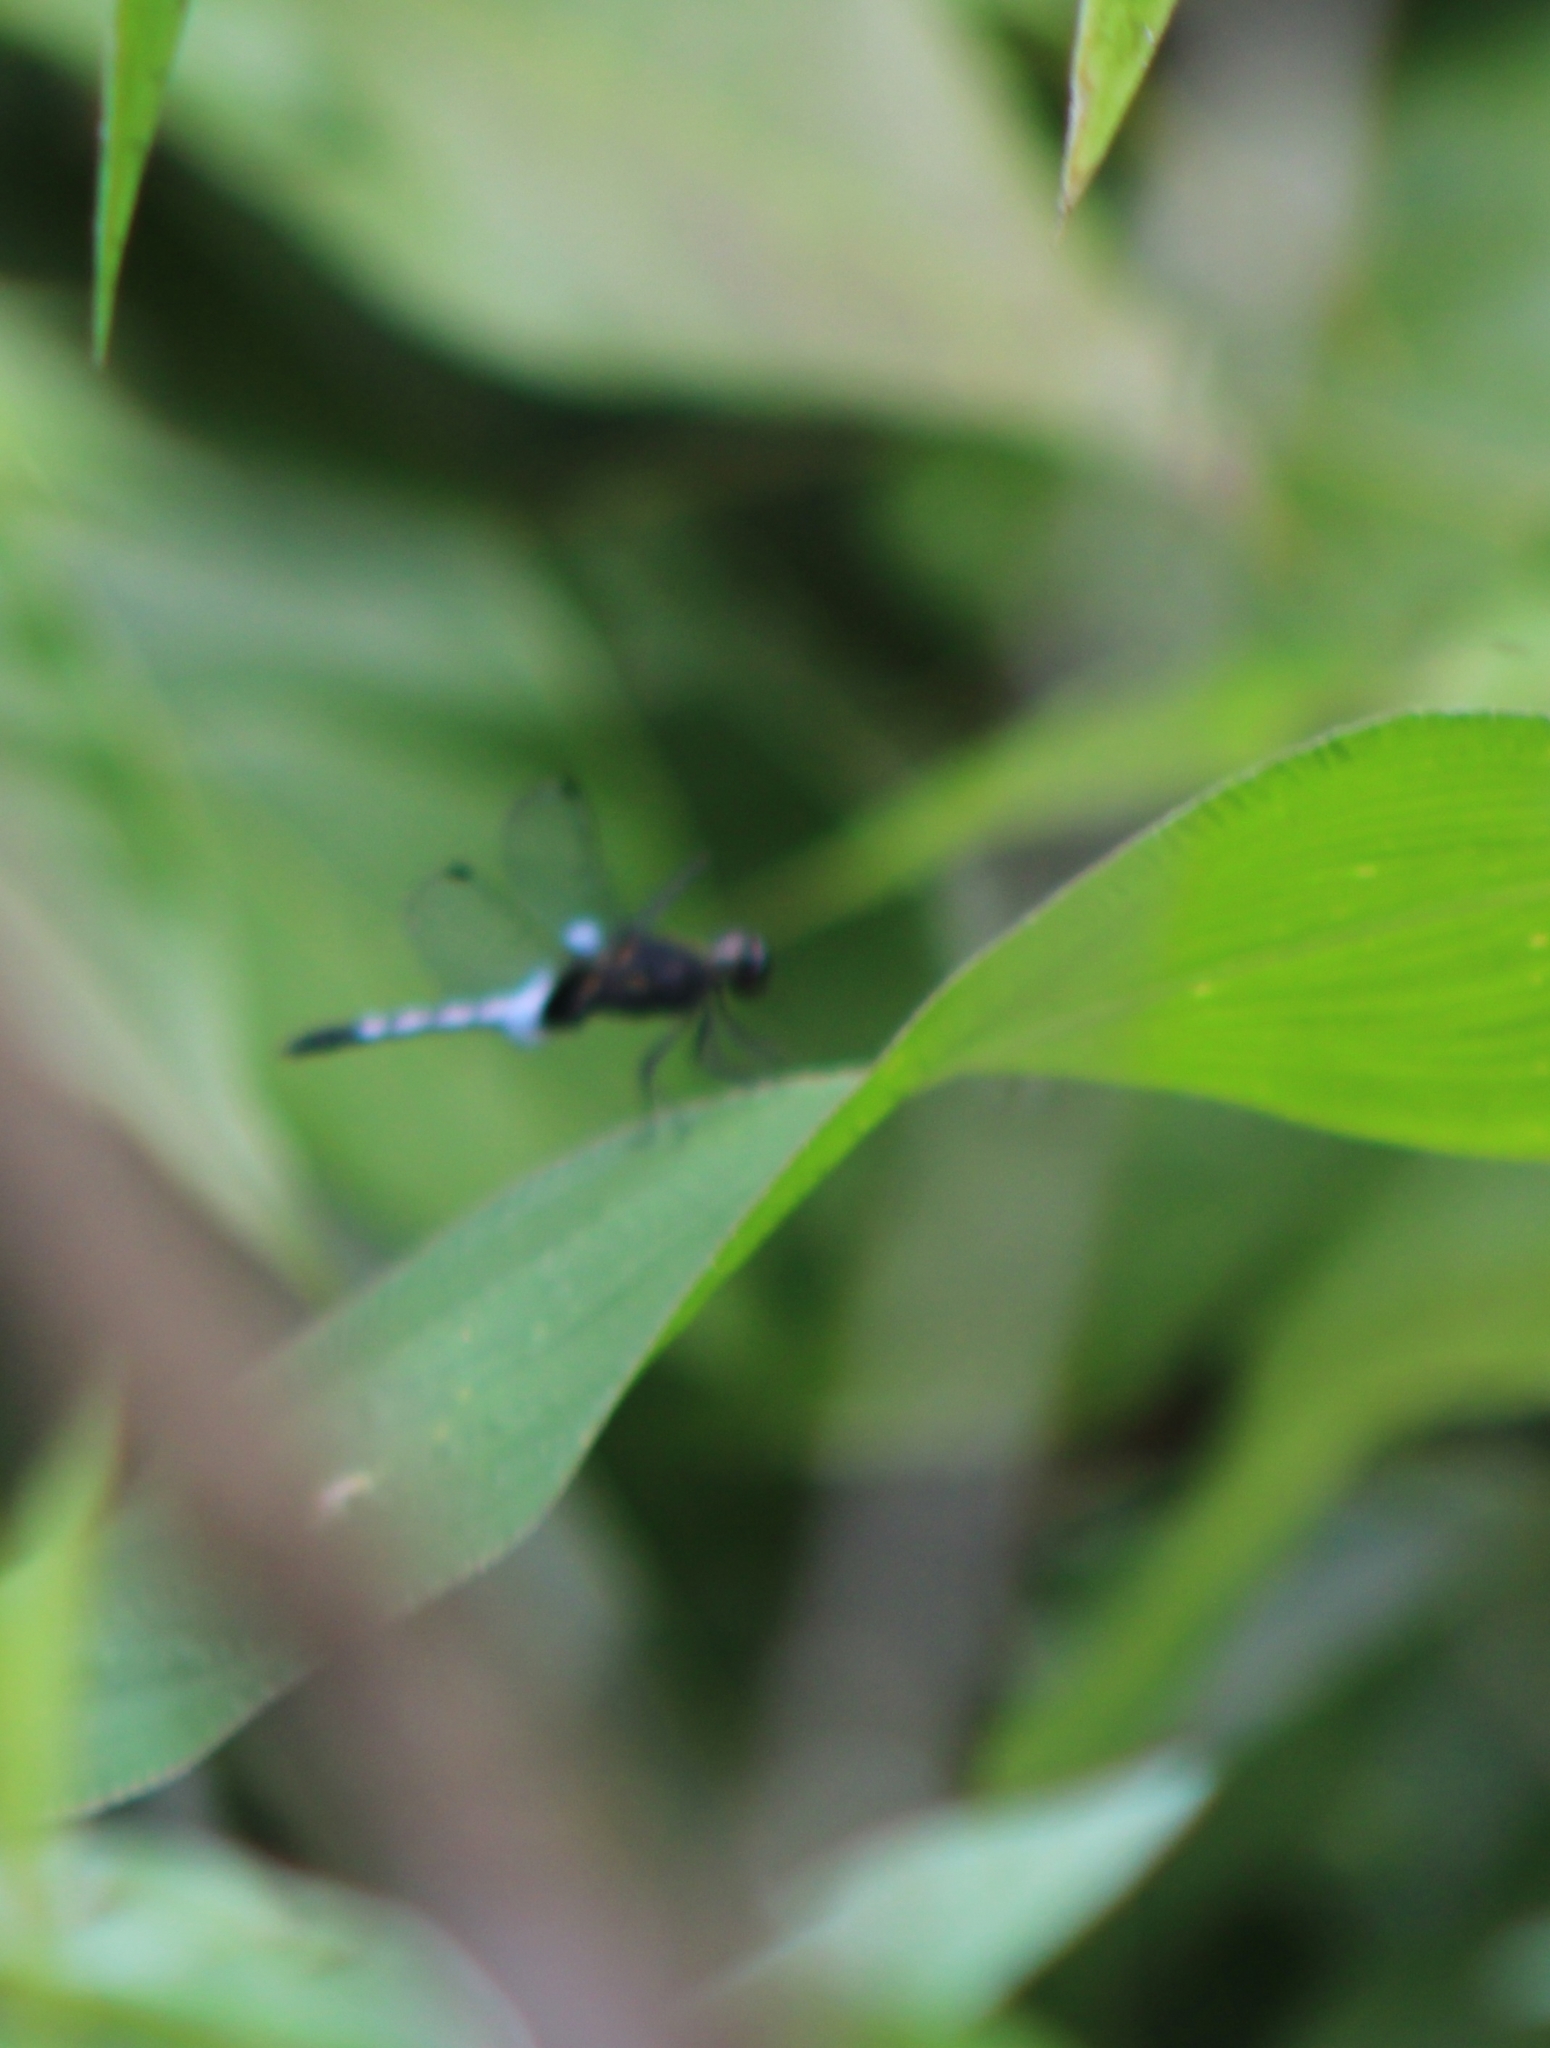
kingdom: Animalia
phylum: Arthropoda
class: Insecta
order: Odonata
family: Libellulidae
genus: Erythrodiplax
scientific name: Erythrodiplax kimminsi
